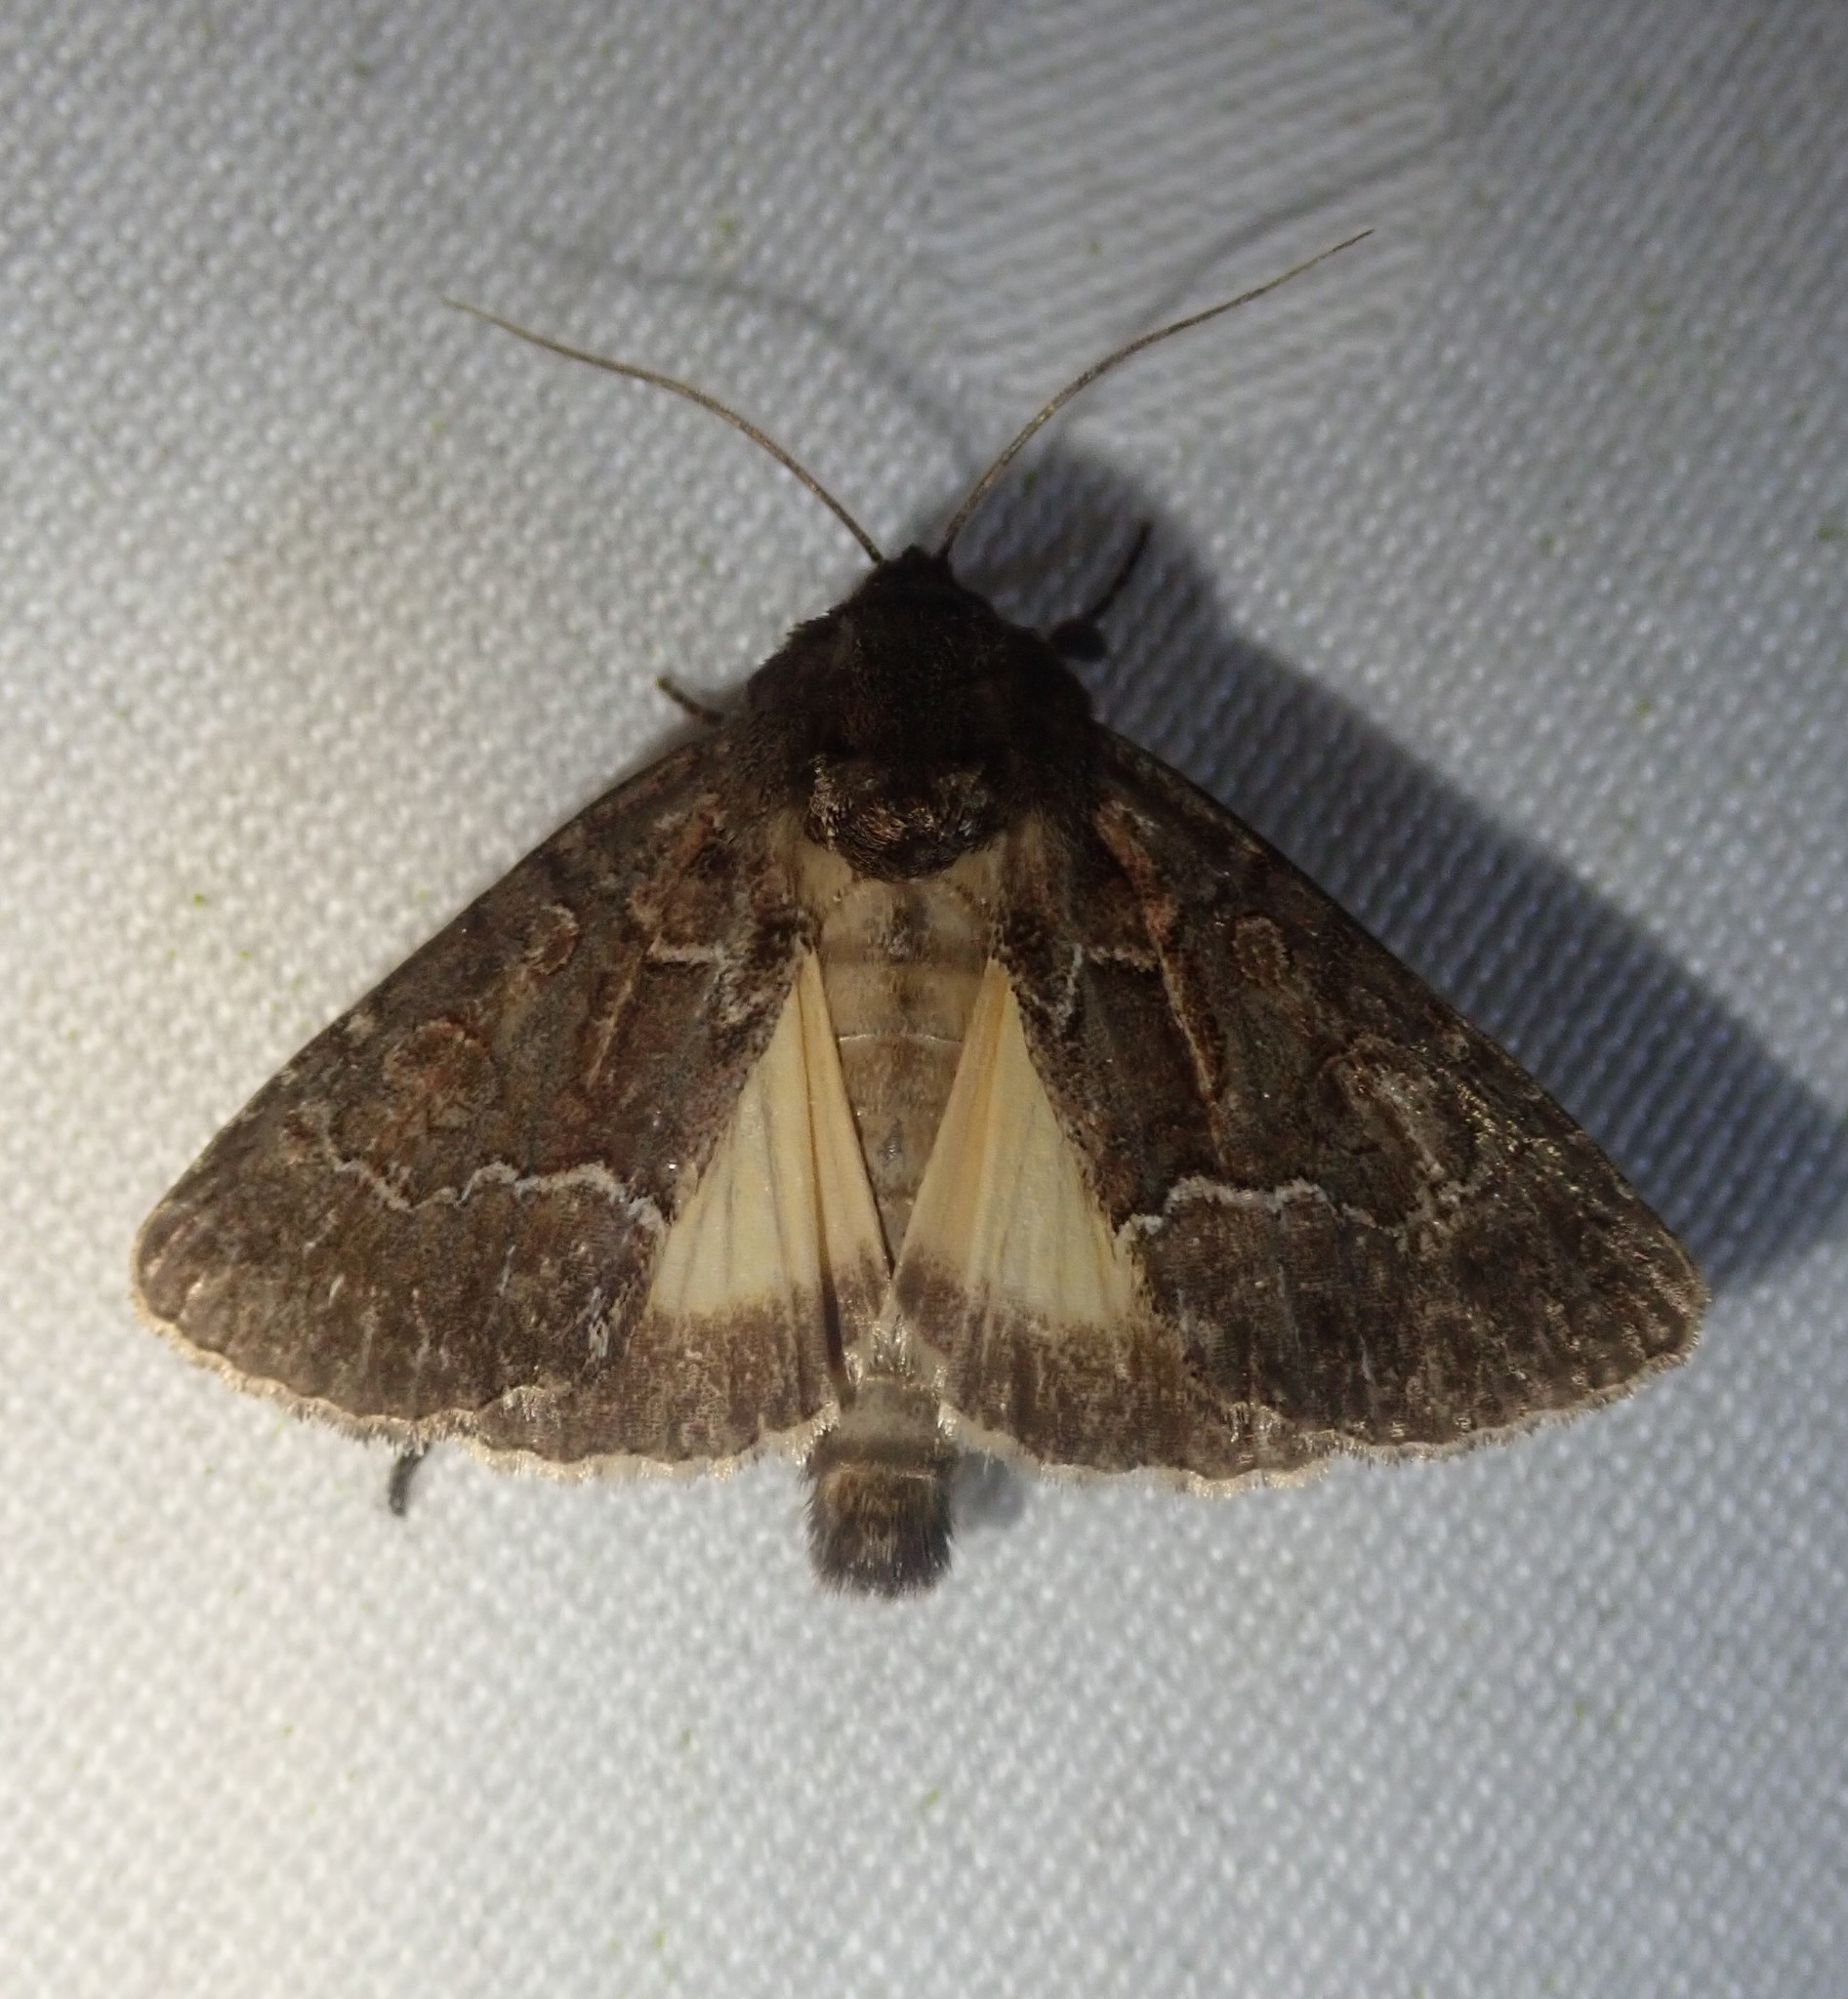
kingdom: Animalia
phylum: Arthropoda
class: Insecta
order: Lepidoptera
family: Noctuidae
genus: Thalpophila
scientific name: Thalpophila matura
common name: Straw underwing
